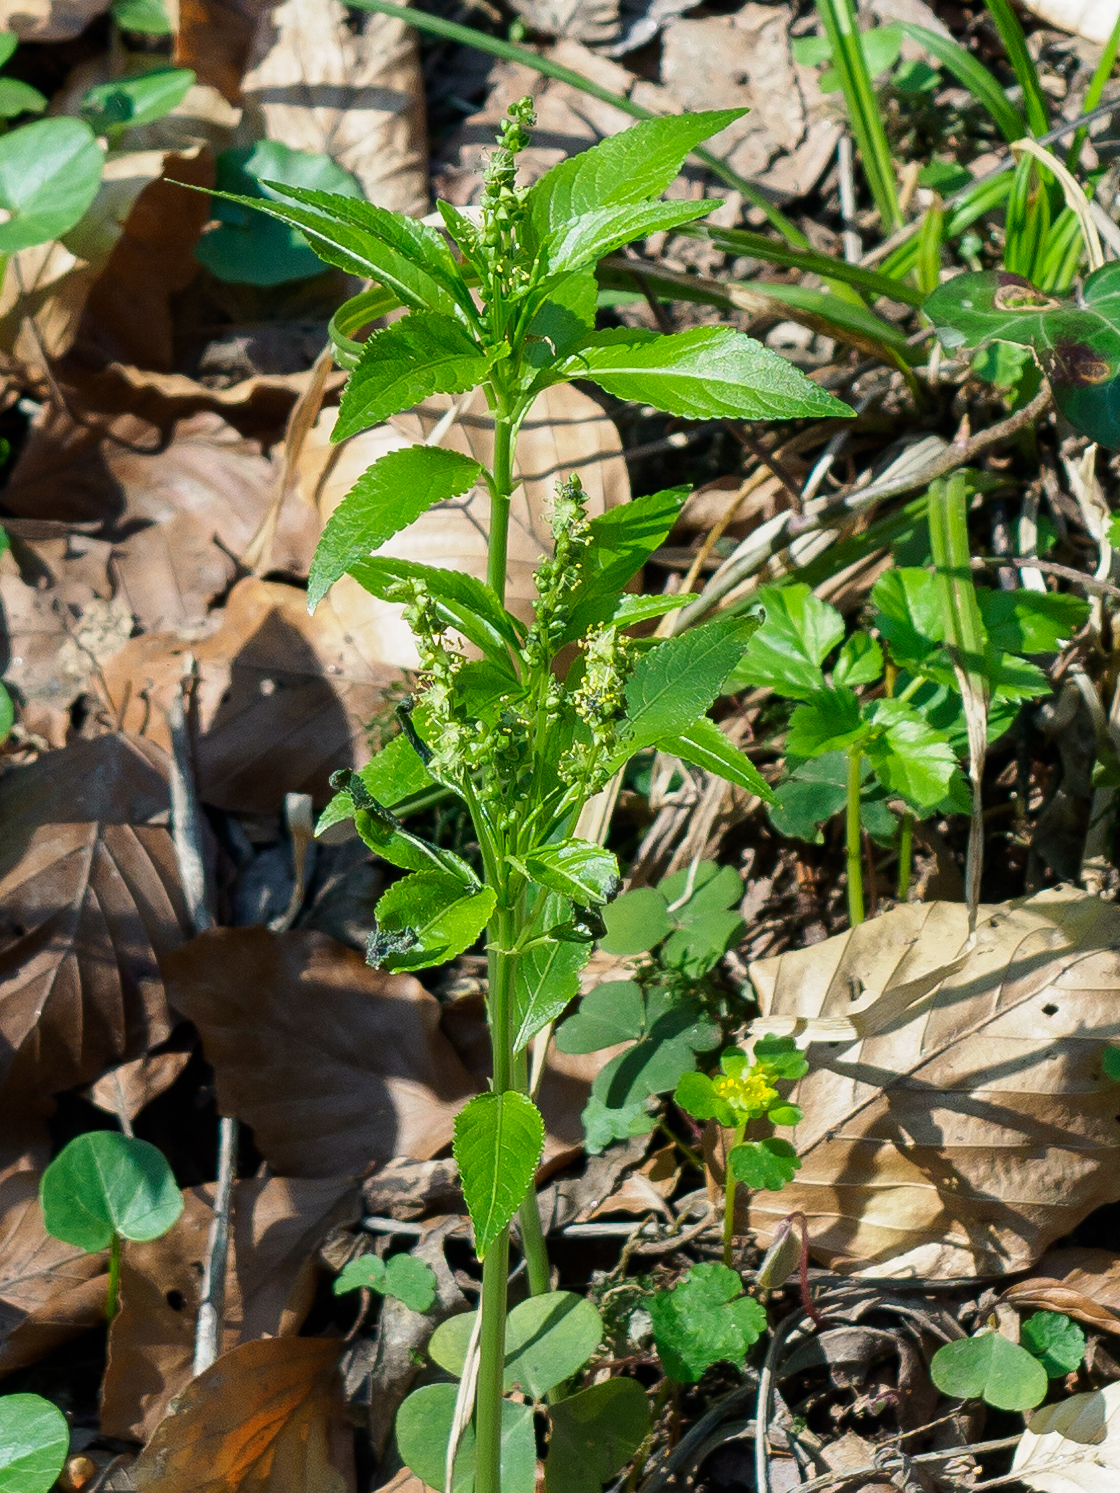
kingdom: Plantae
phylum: Tracheophyta
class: Magnoliopsida
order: Malpighiales
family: Euphorbiaceae
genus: Mercurialis
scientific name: Mercurialis perennis
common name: Dog mercury
